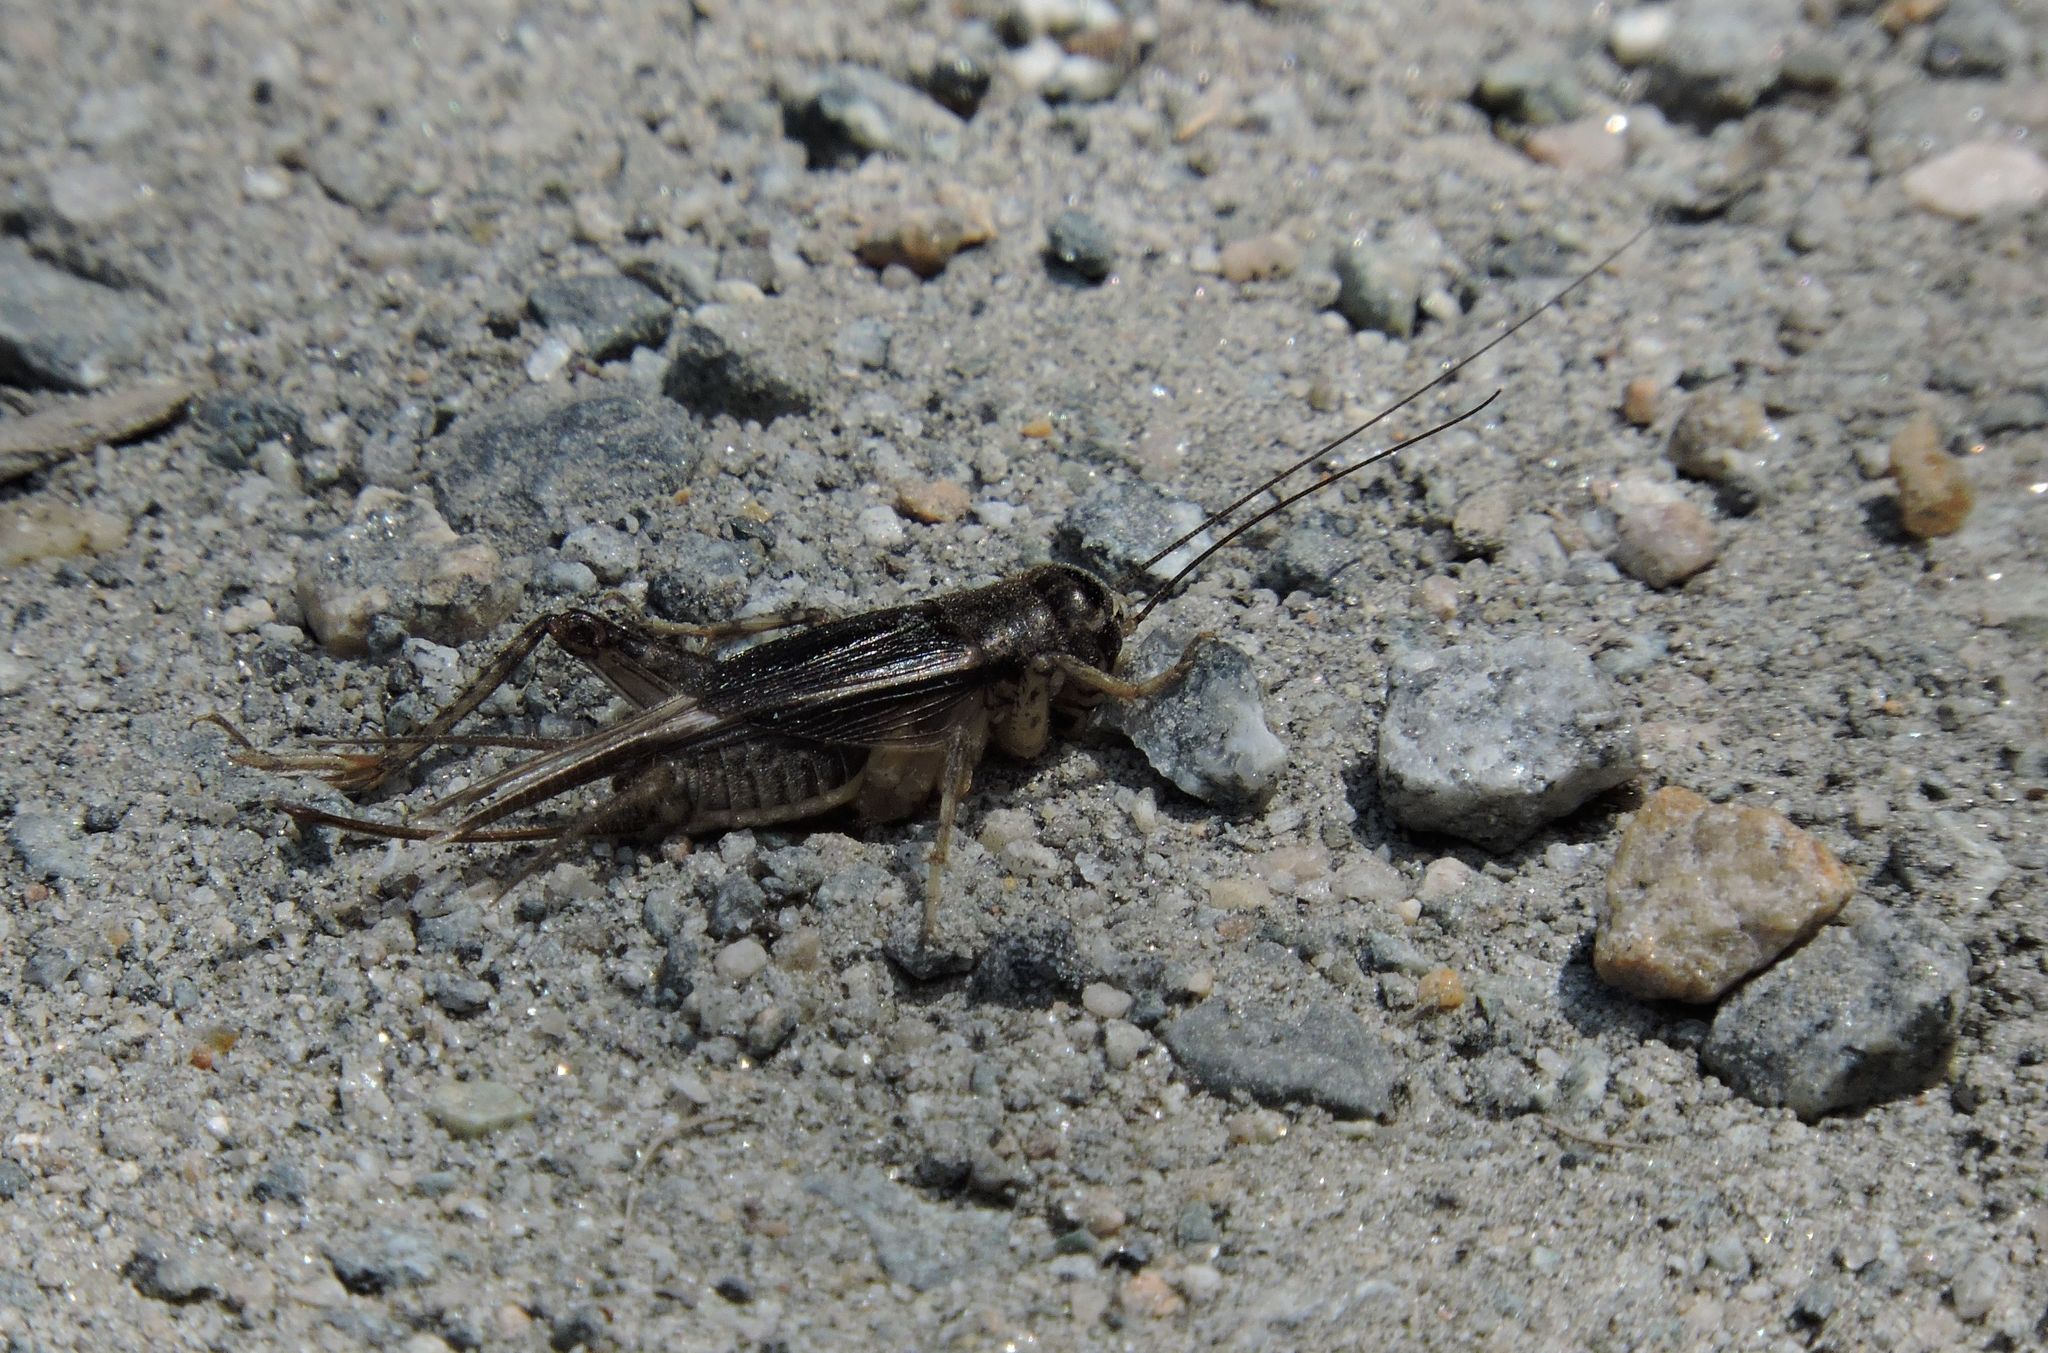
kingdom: Animalia
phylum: Arthropoda
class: Insecta
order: Orthoptera
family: Gryllidae
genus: Velarifictorus
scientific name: Velarifictorus micado
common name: Japanese burrowing cricket
